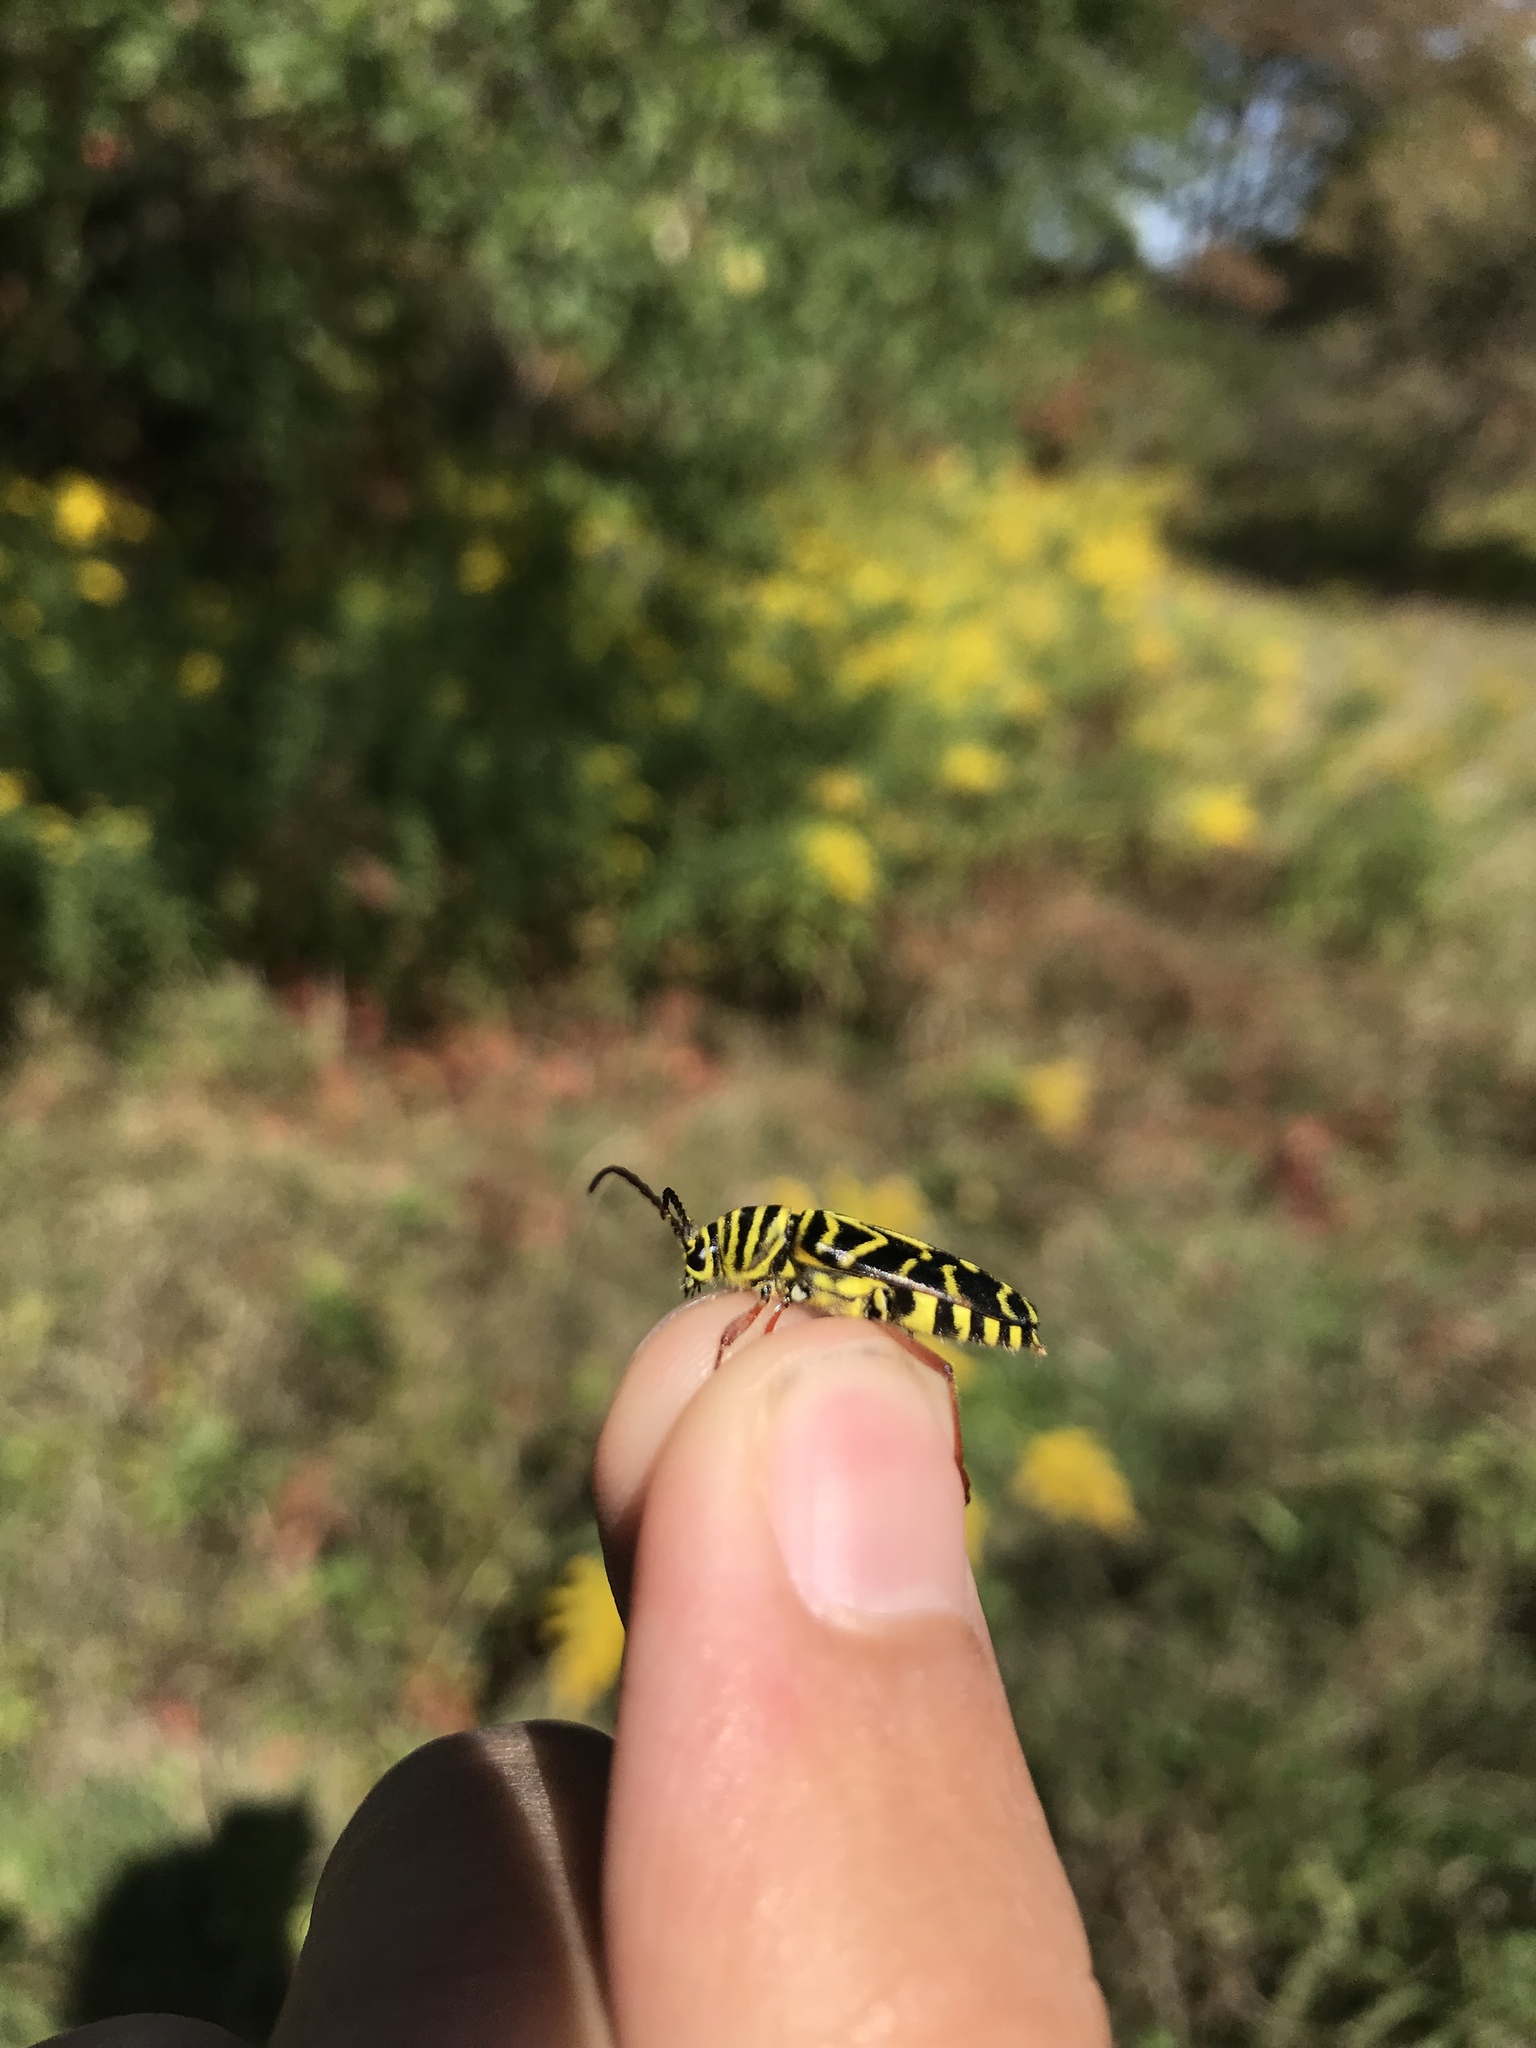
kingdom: Animalia
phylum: Arthropoda
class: Insecta
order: Coleoptera
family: Cerambycidae
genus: Megacyllene
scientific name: Megacyllene robiniae
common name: Locust borer
